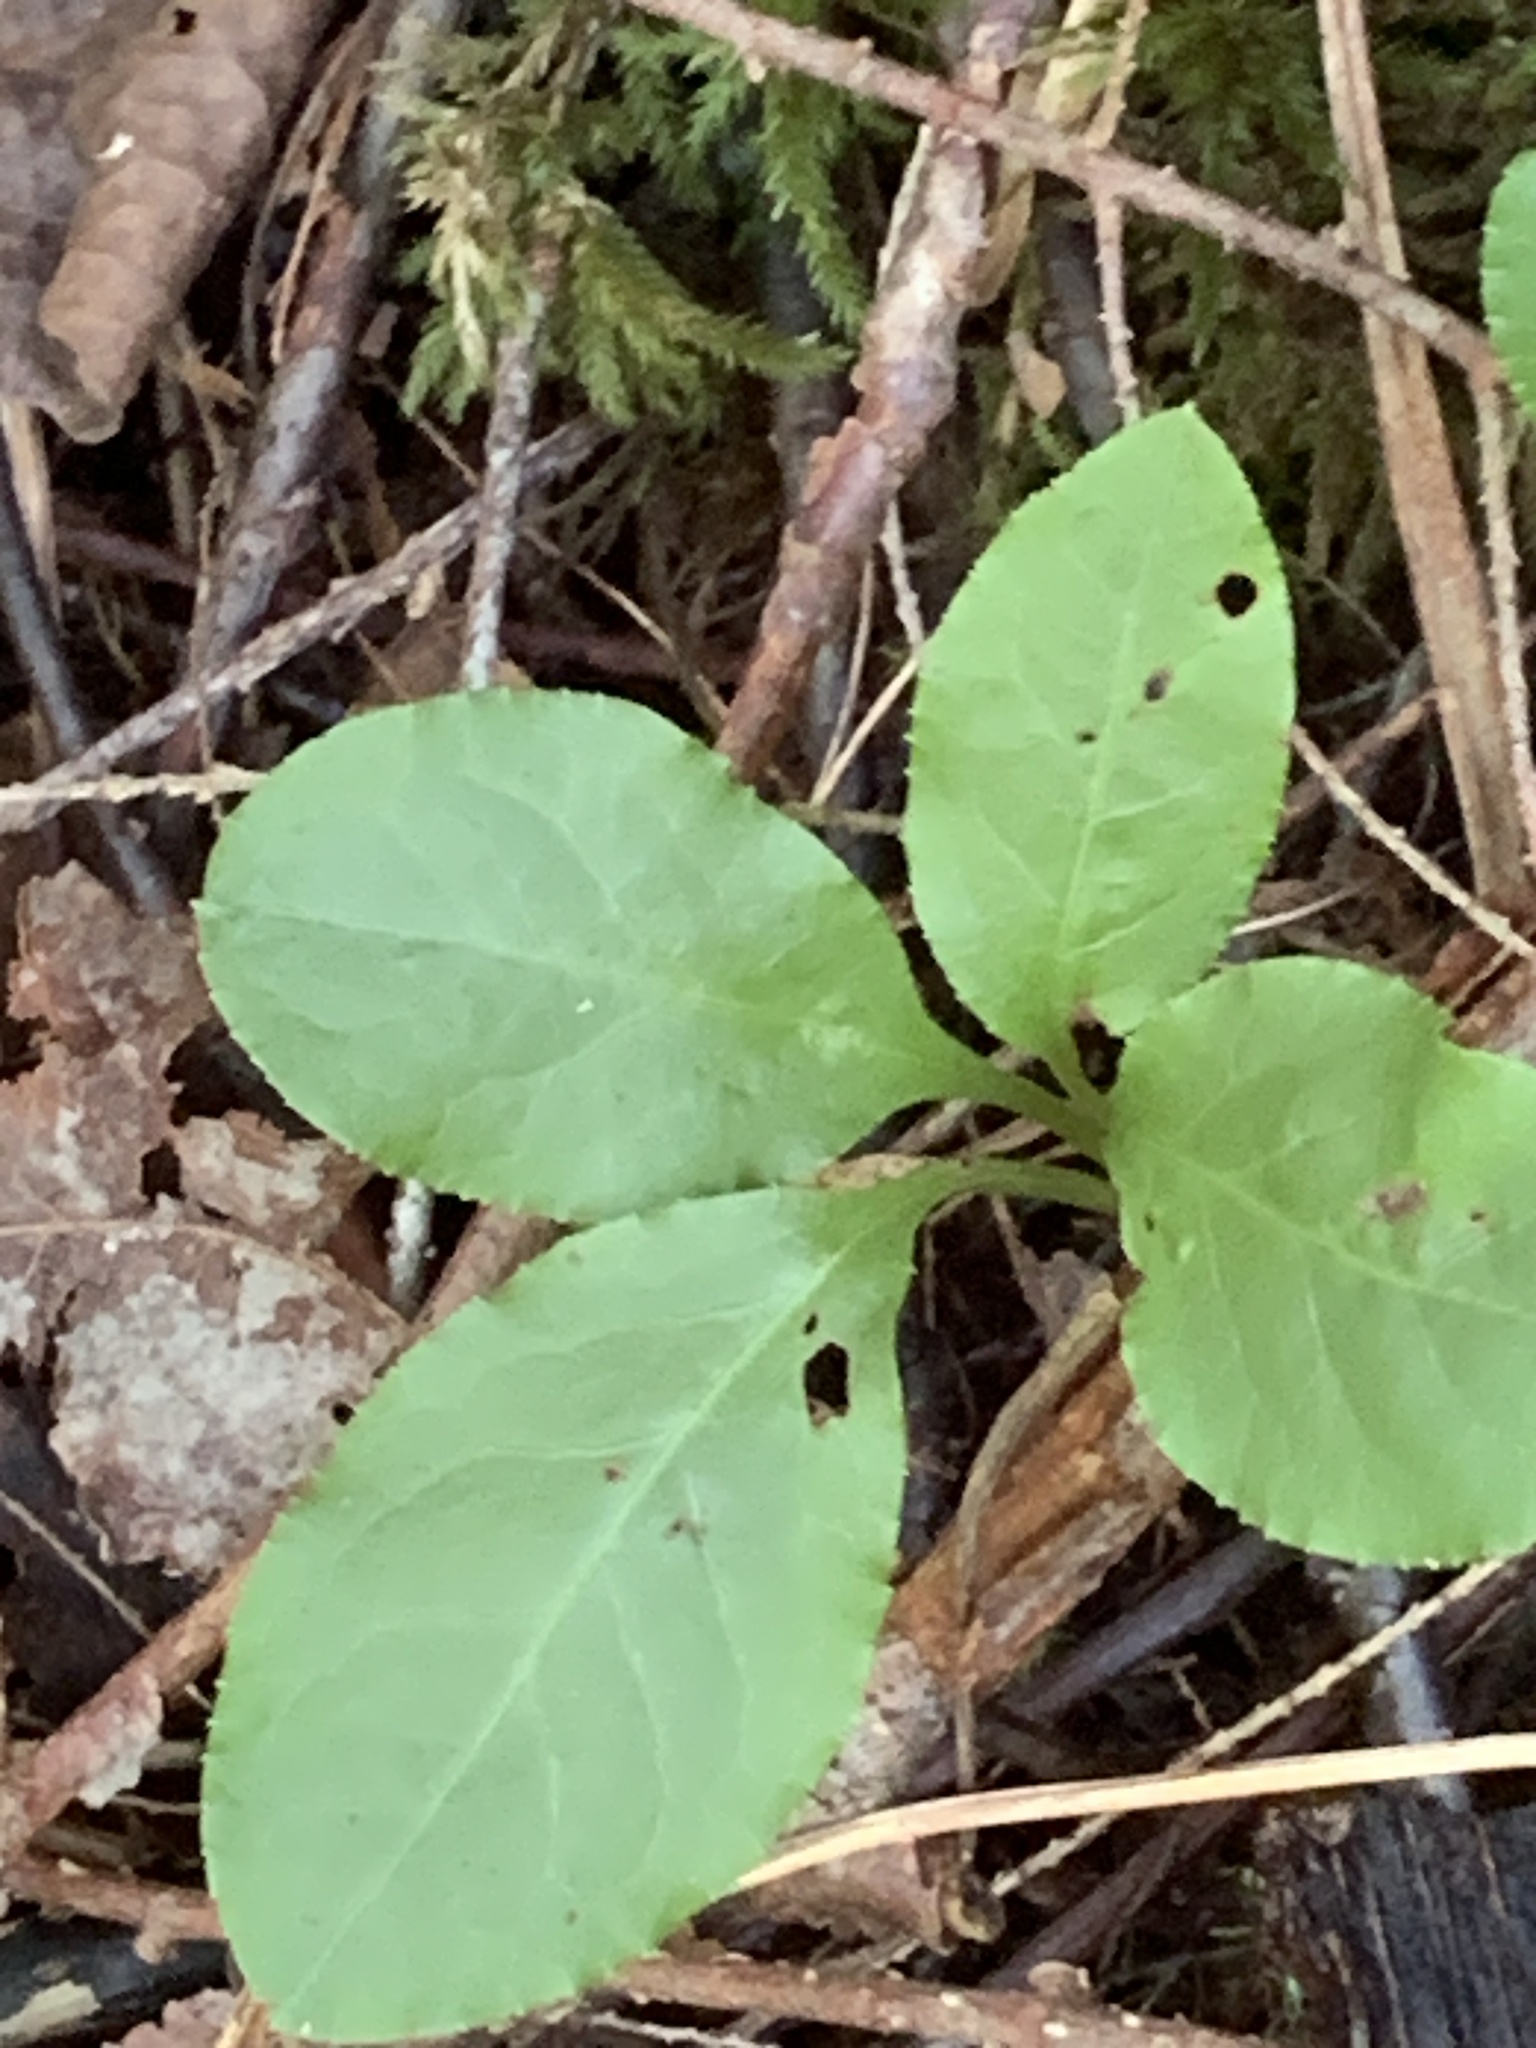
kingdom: Plantae
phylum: Tracheophyta
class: Magnoliopsida
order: Ericales
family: Ericaceae
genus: Pyrola
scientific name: Pyrola elliptica
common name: Shinleaf
